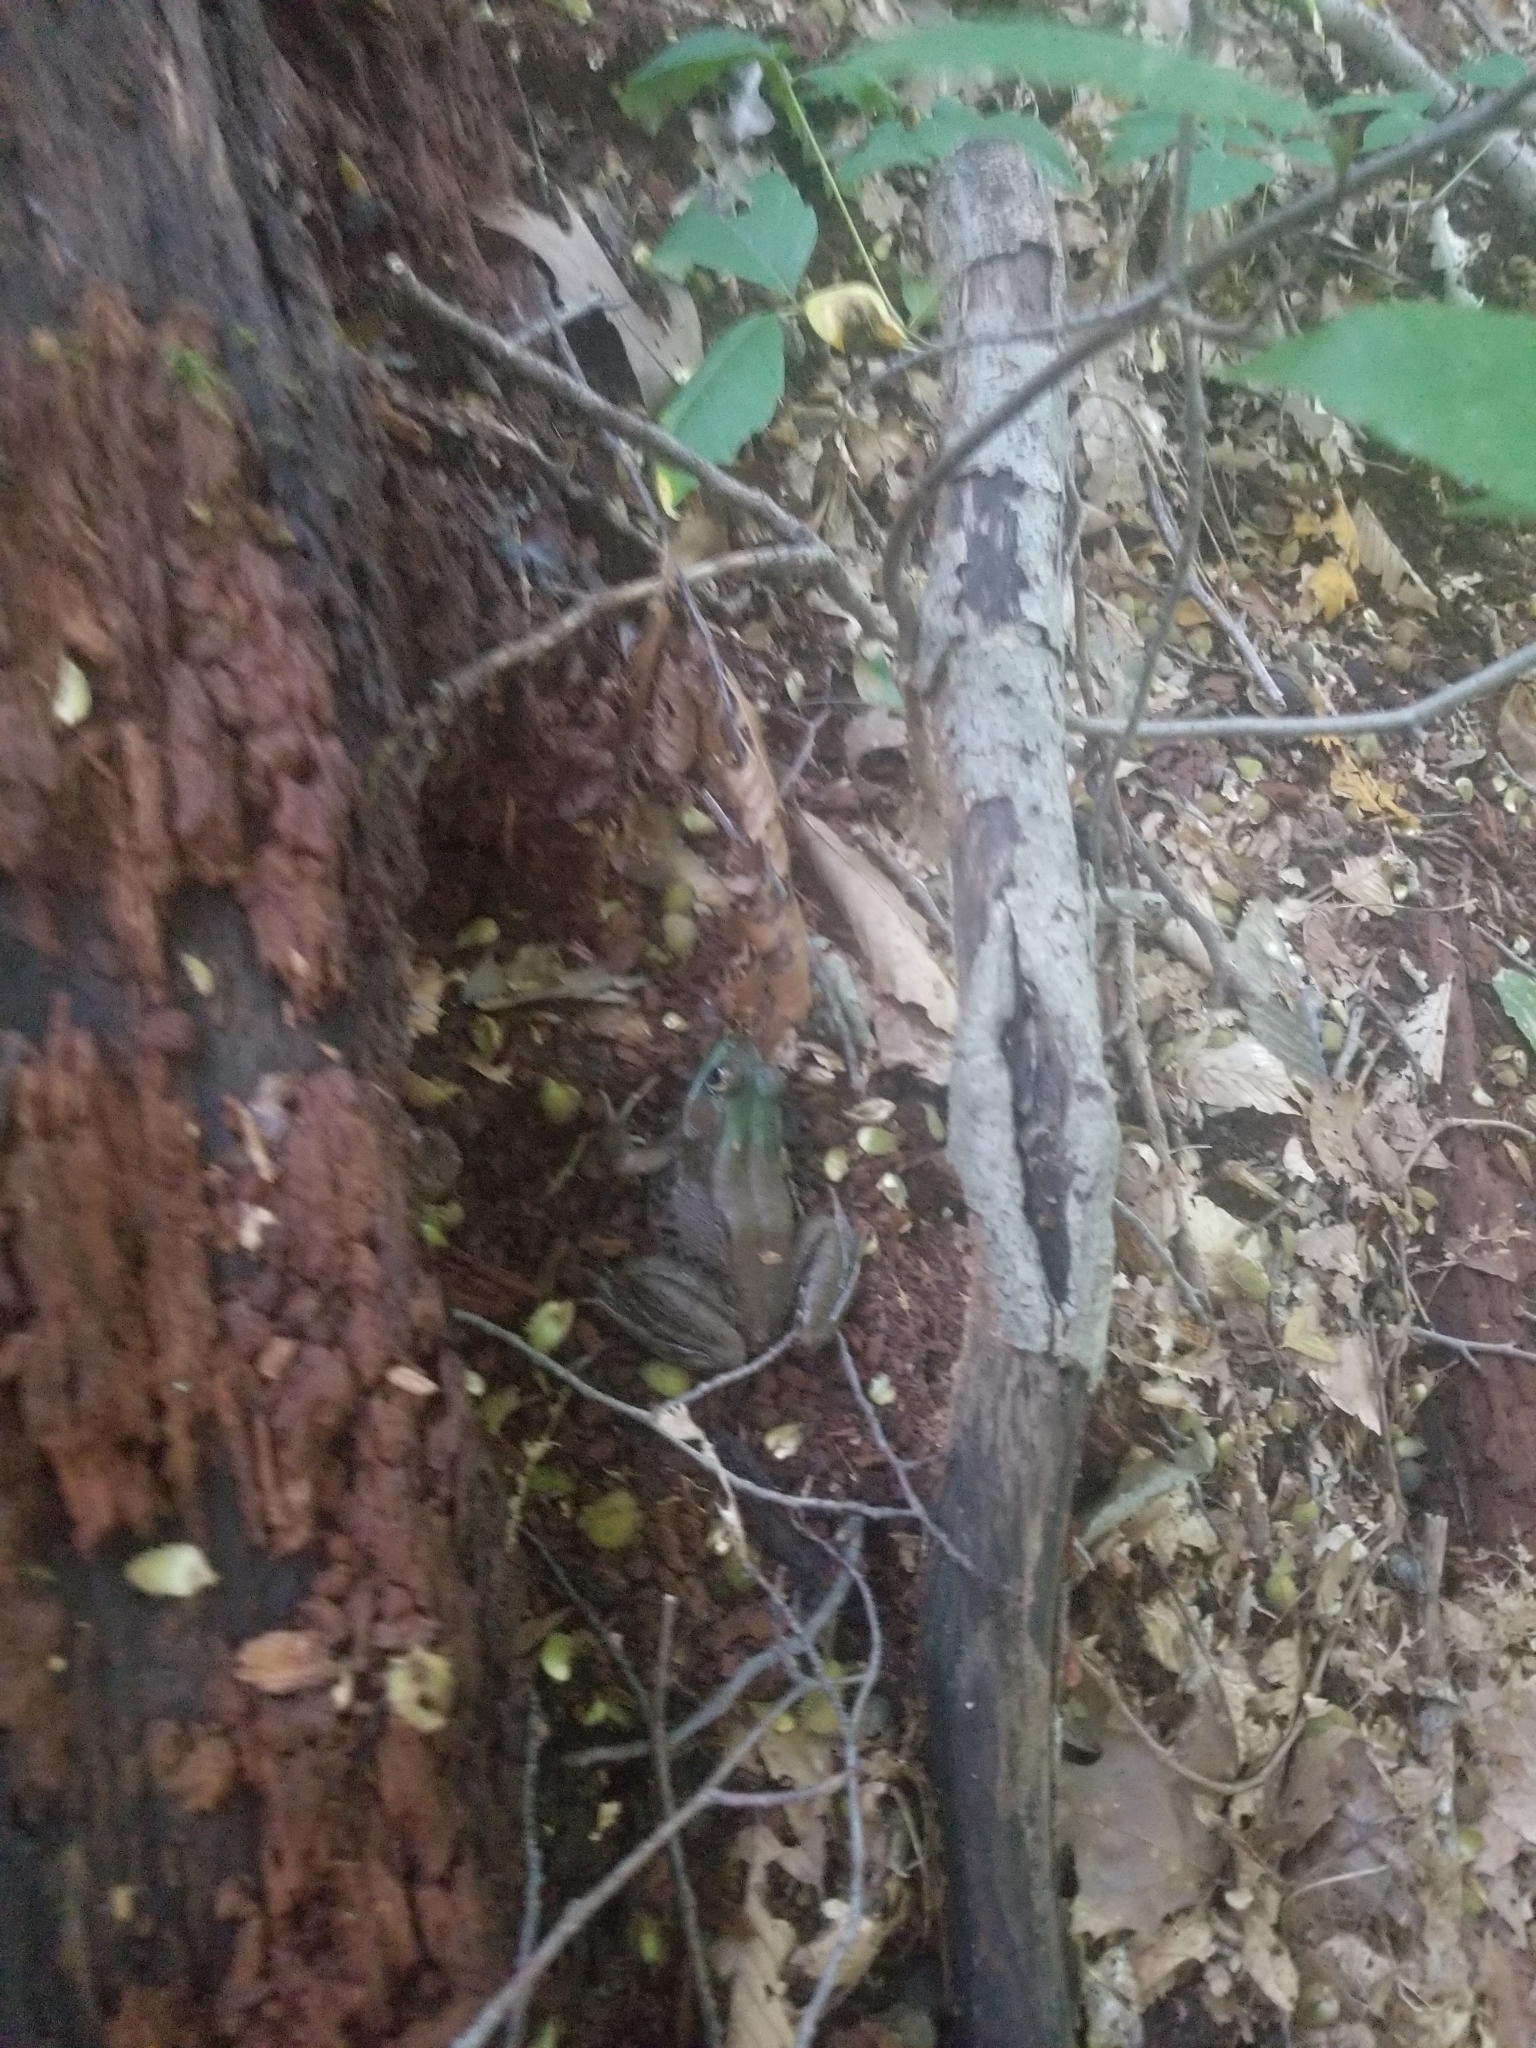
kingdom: Animalia
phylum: Chordata
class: Amphibia
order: Anura
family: Ranidae
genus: Lithobates
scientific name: Lithobates clamitans
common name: Green frog
